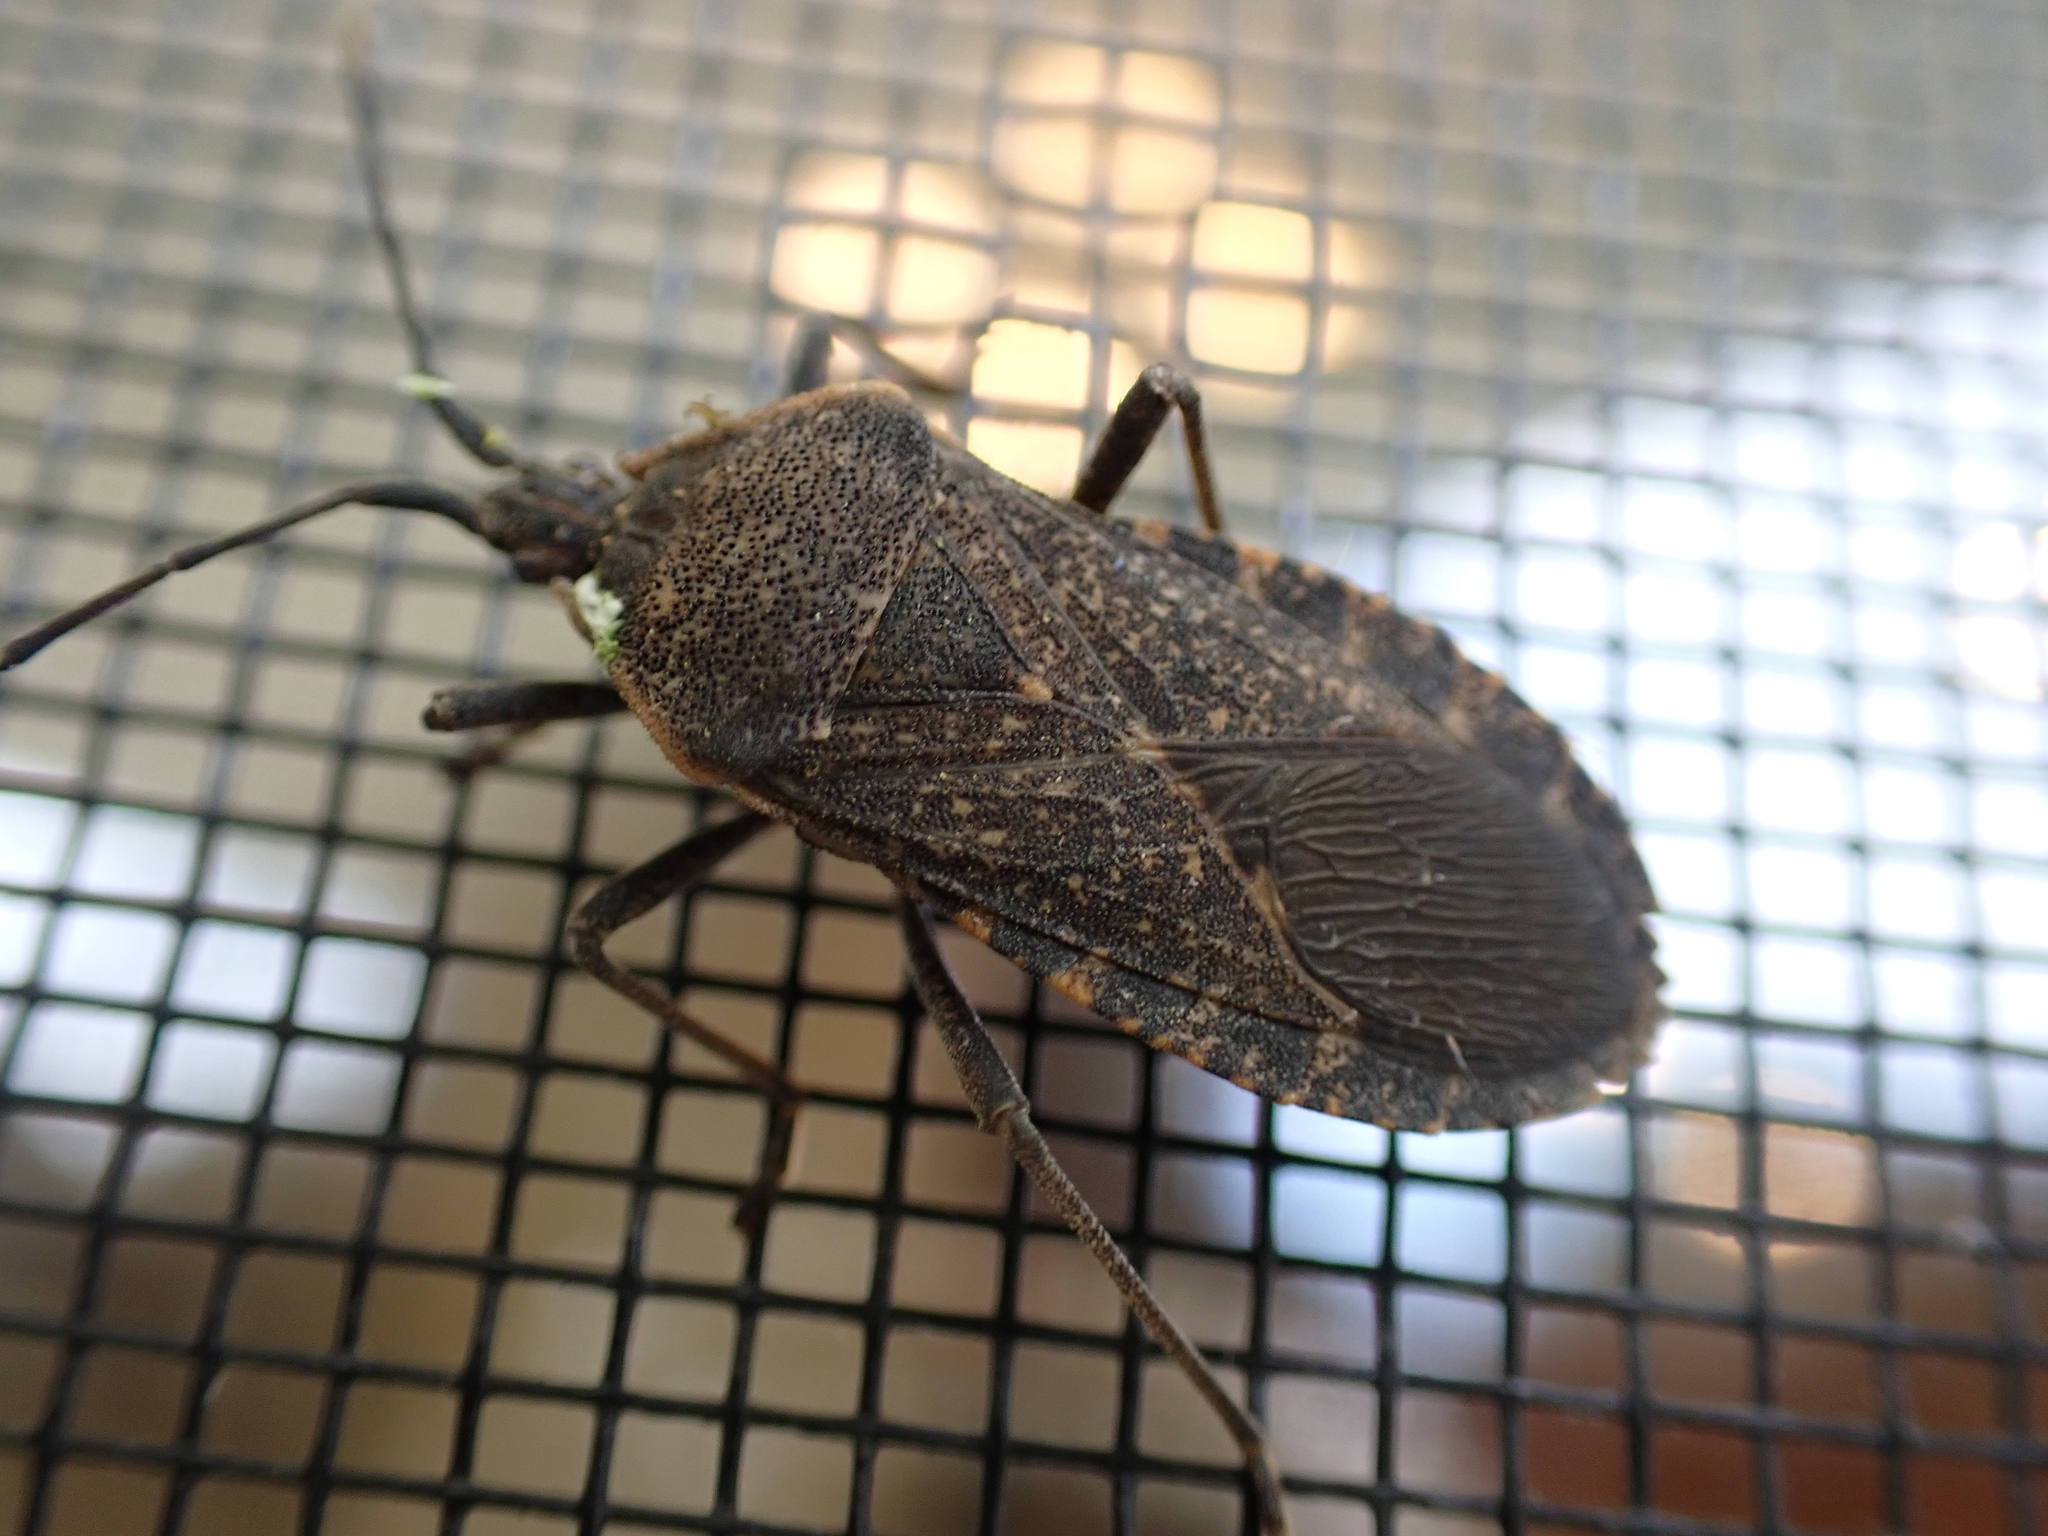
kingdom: Animalia
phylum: Arthropoda
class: Insecta
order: Hemiptera
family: Coreidae
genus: Anasa
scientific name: Anasa tristis
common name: Squash bug
